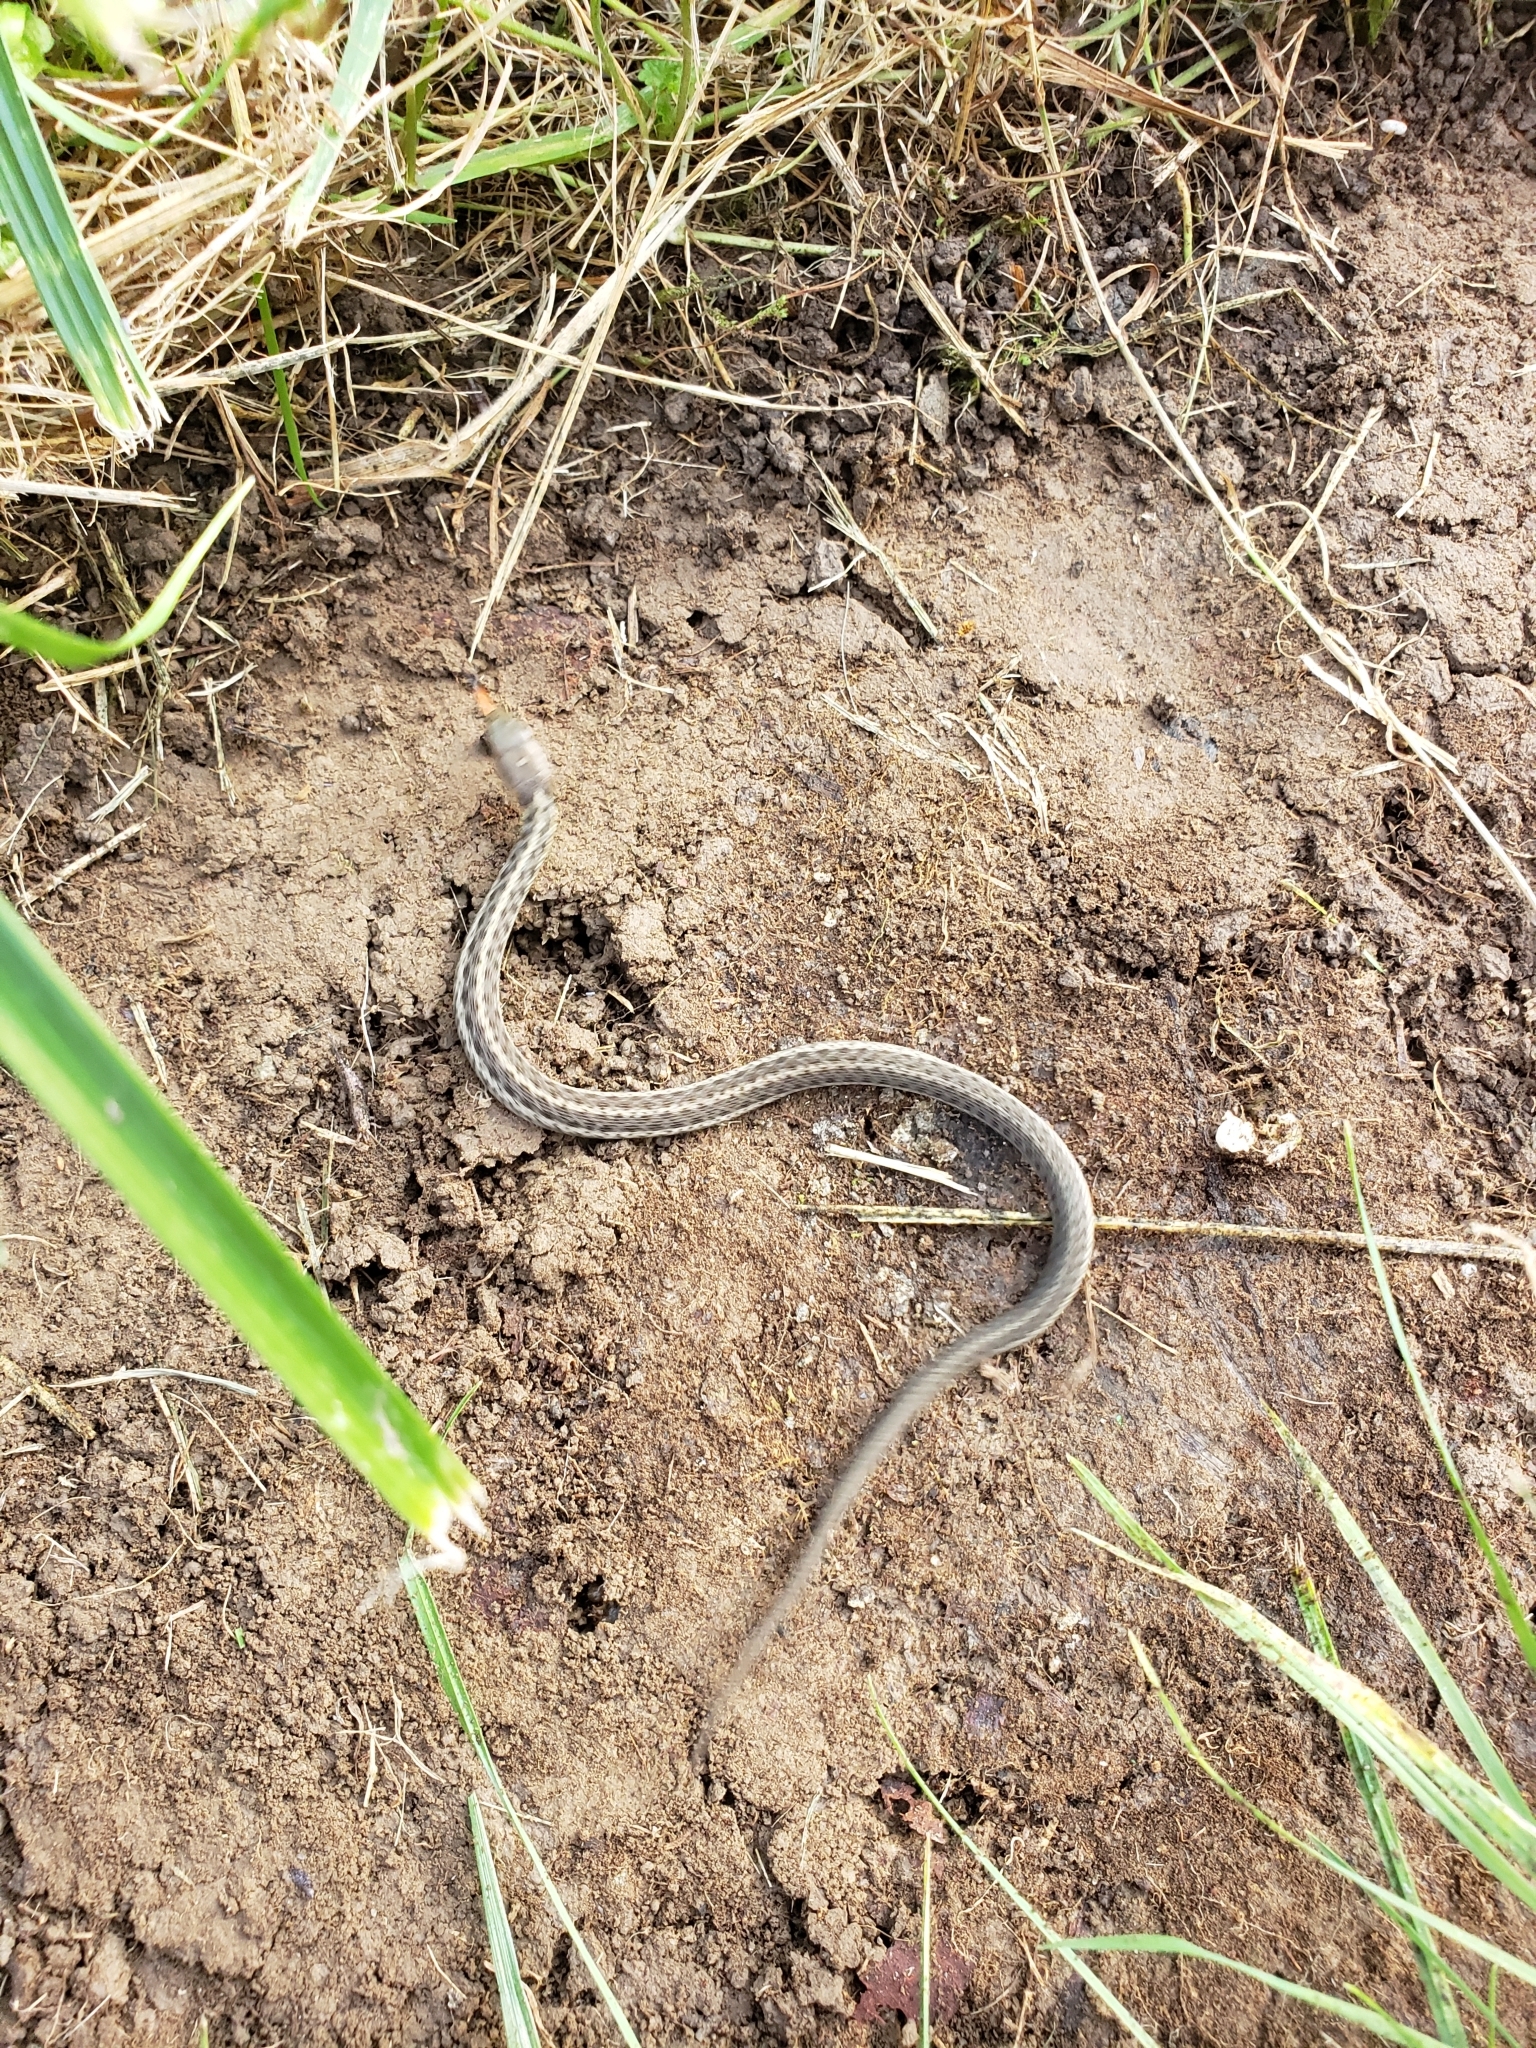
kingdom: Animalia
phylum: Chordata
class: Squamata
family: Colubridae
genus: Thamnophis
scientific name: Thamnophis sirtalis
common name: Common garter snake
